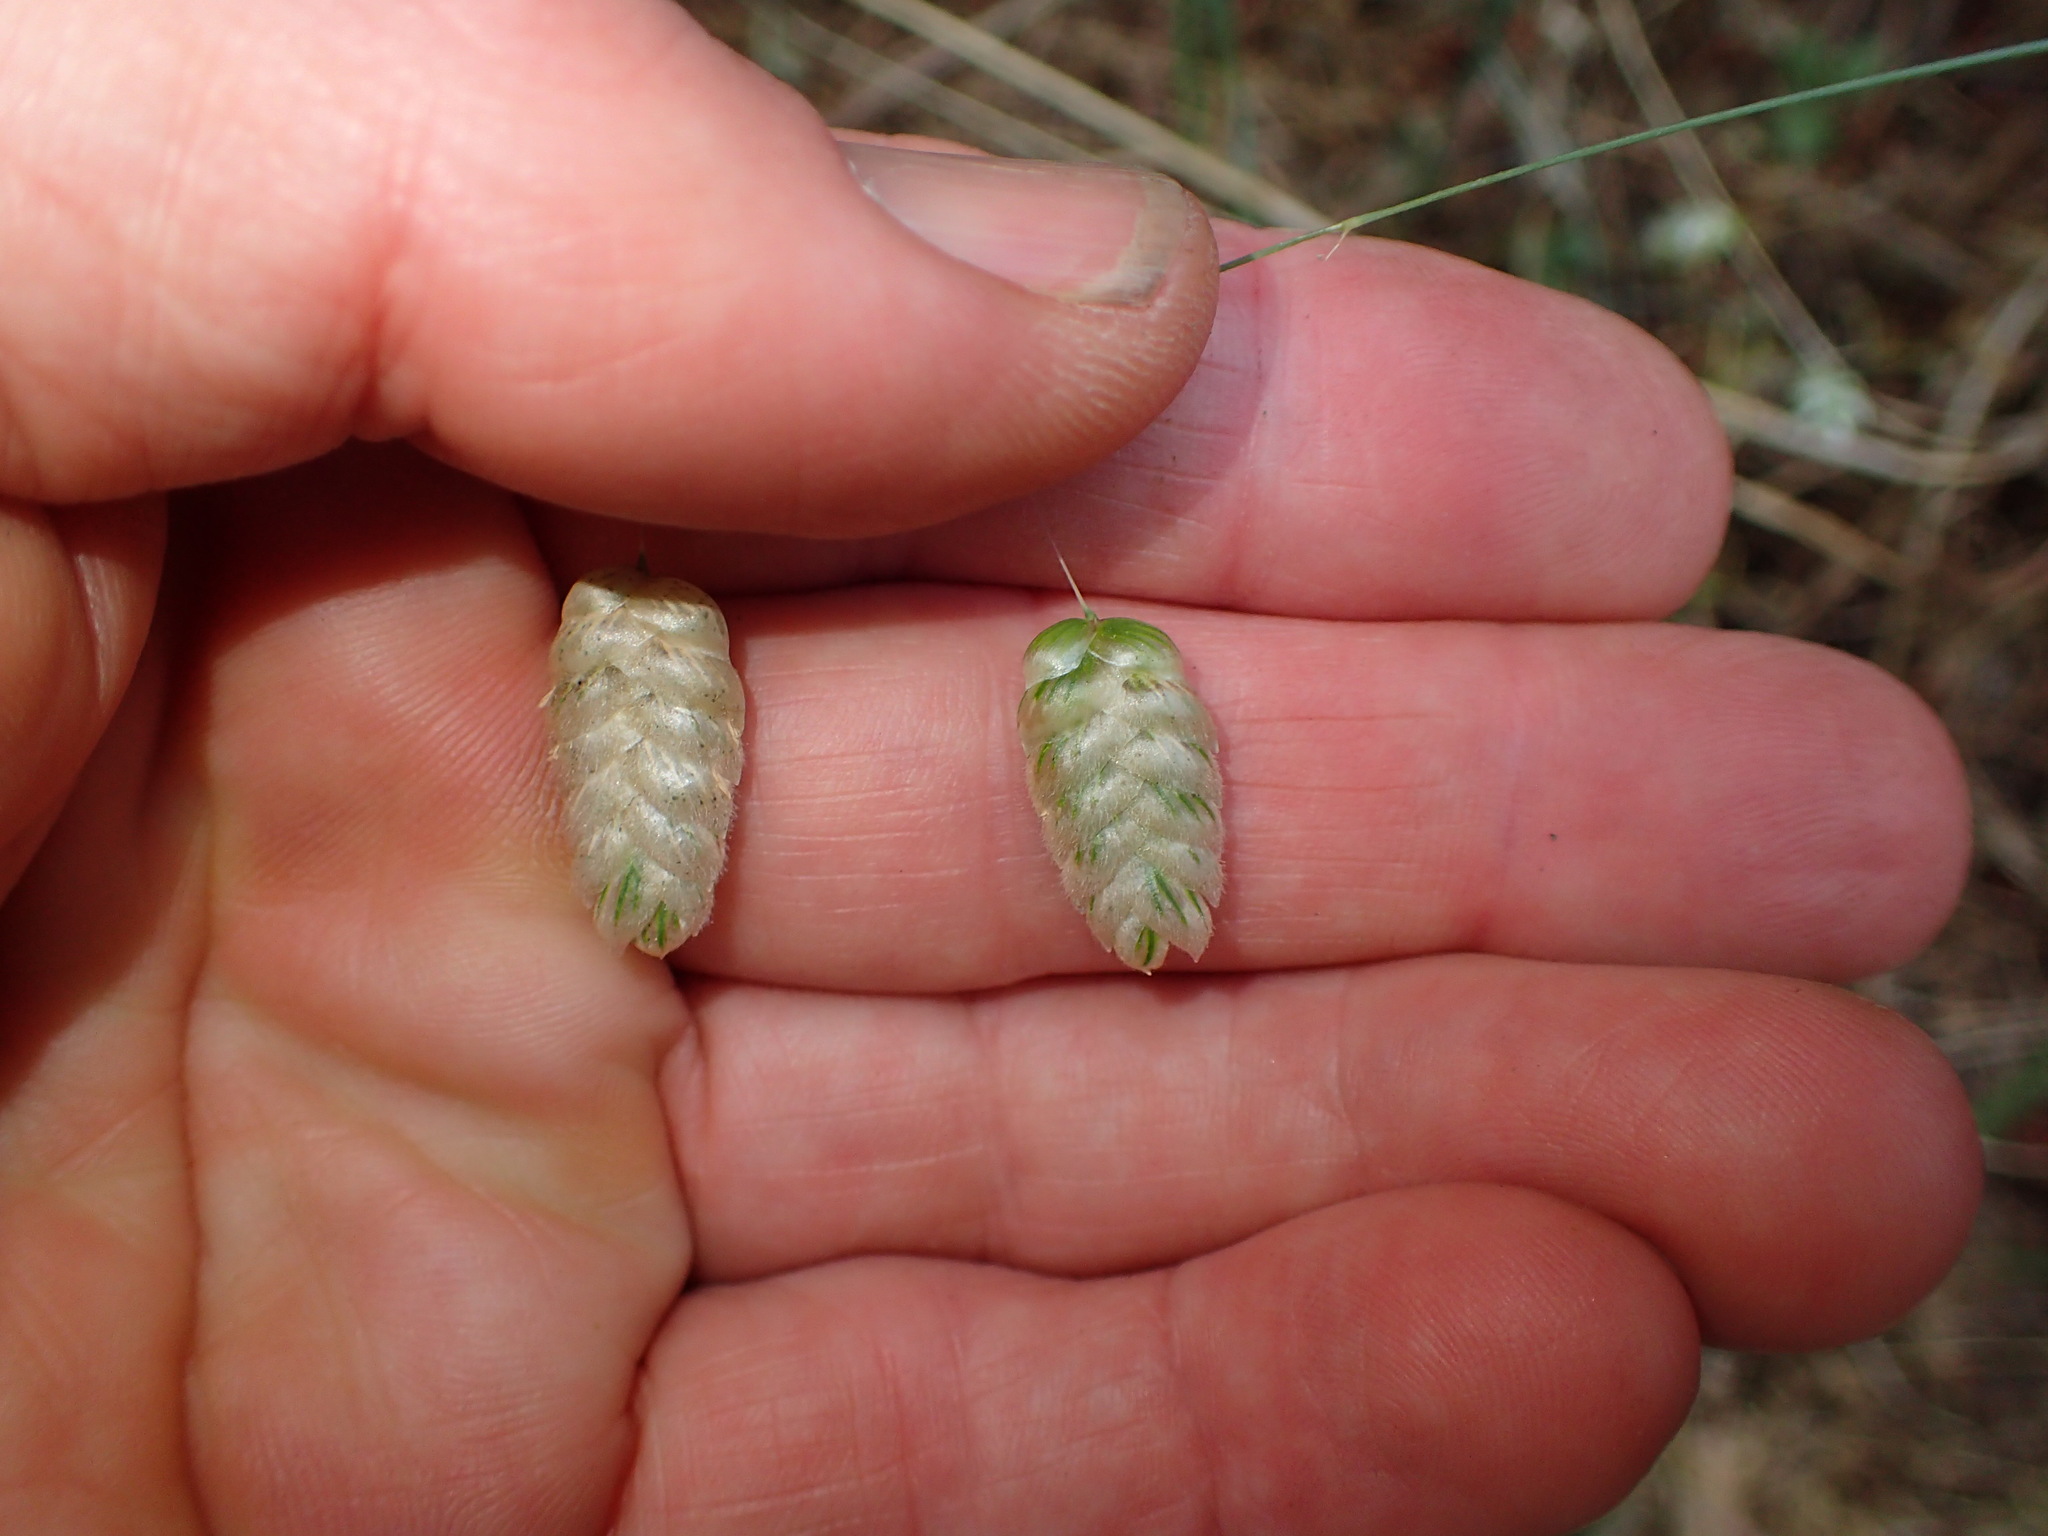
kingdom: Plantae
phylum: Tracheophyta
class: Liliopsida
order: Poales
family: Poaceae
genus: Briza
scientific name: Briza maxima
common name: Big quakinggrass
